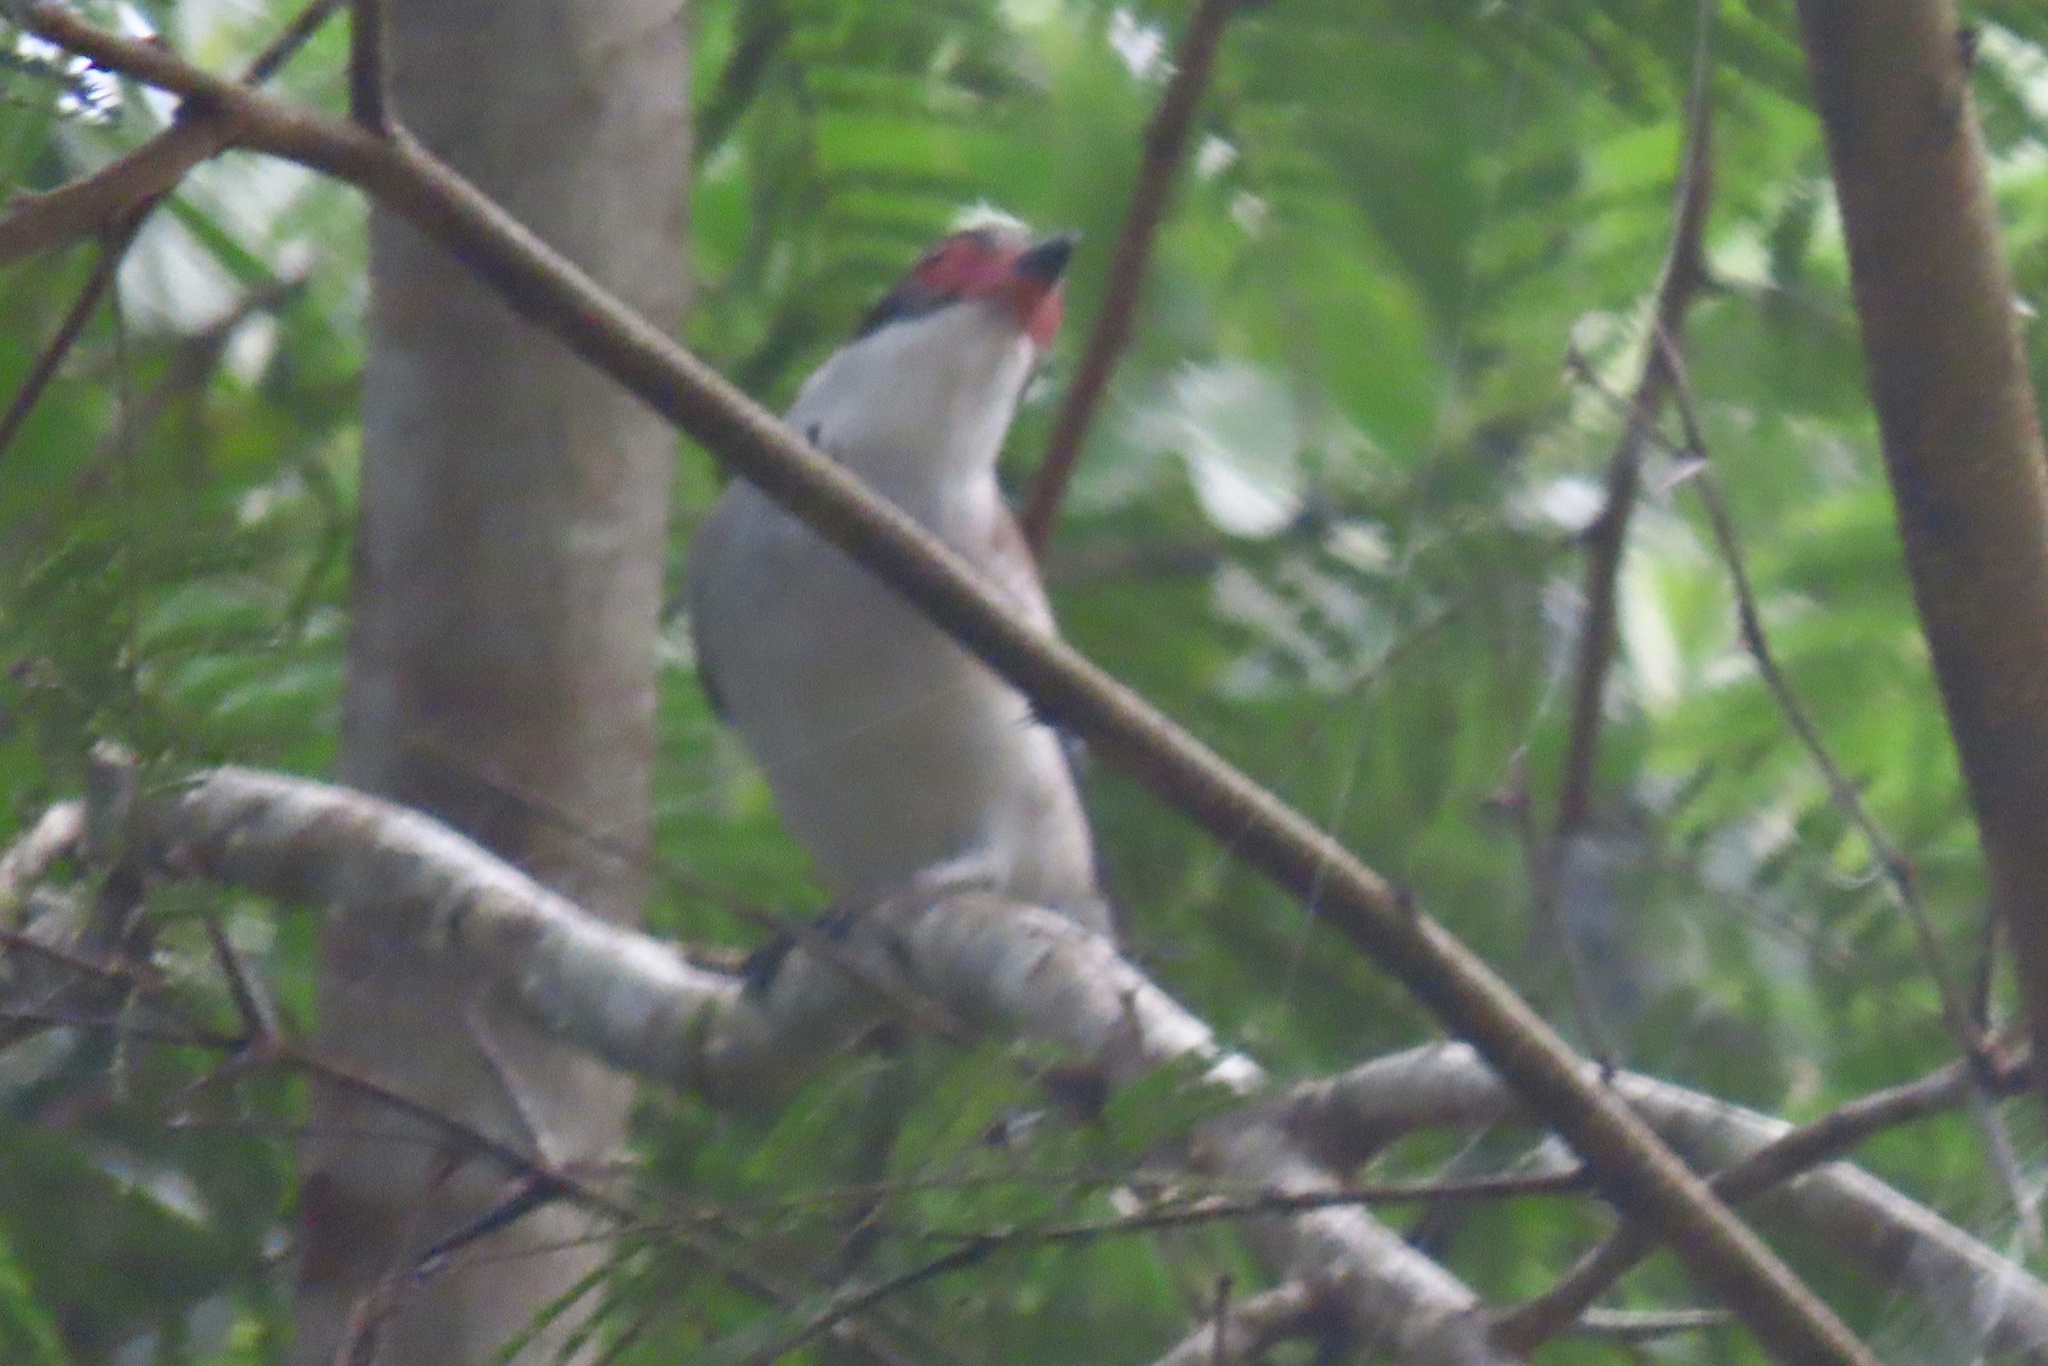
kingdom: Animalia
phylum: Chordata
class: Aves
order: Passeriformes
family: Cotingidae
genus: Tityra
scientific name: Tityra semifasciata
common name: Masked tityra
